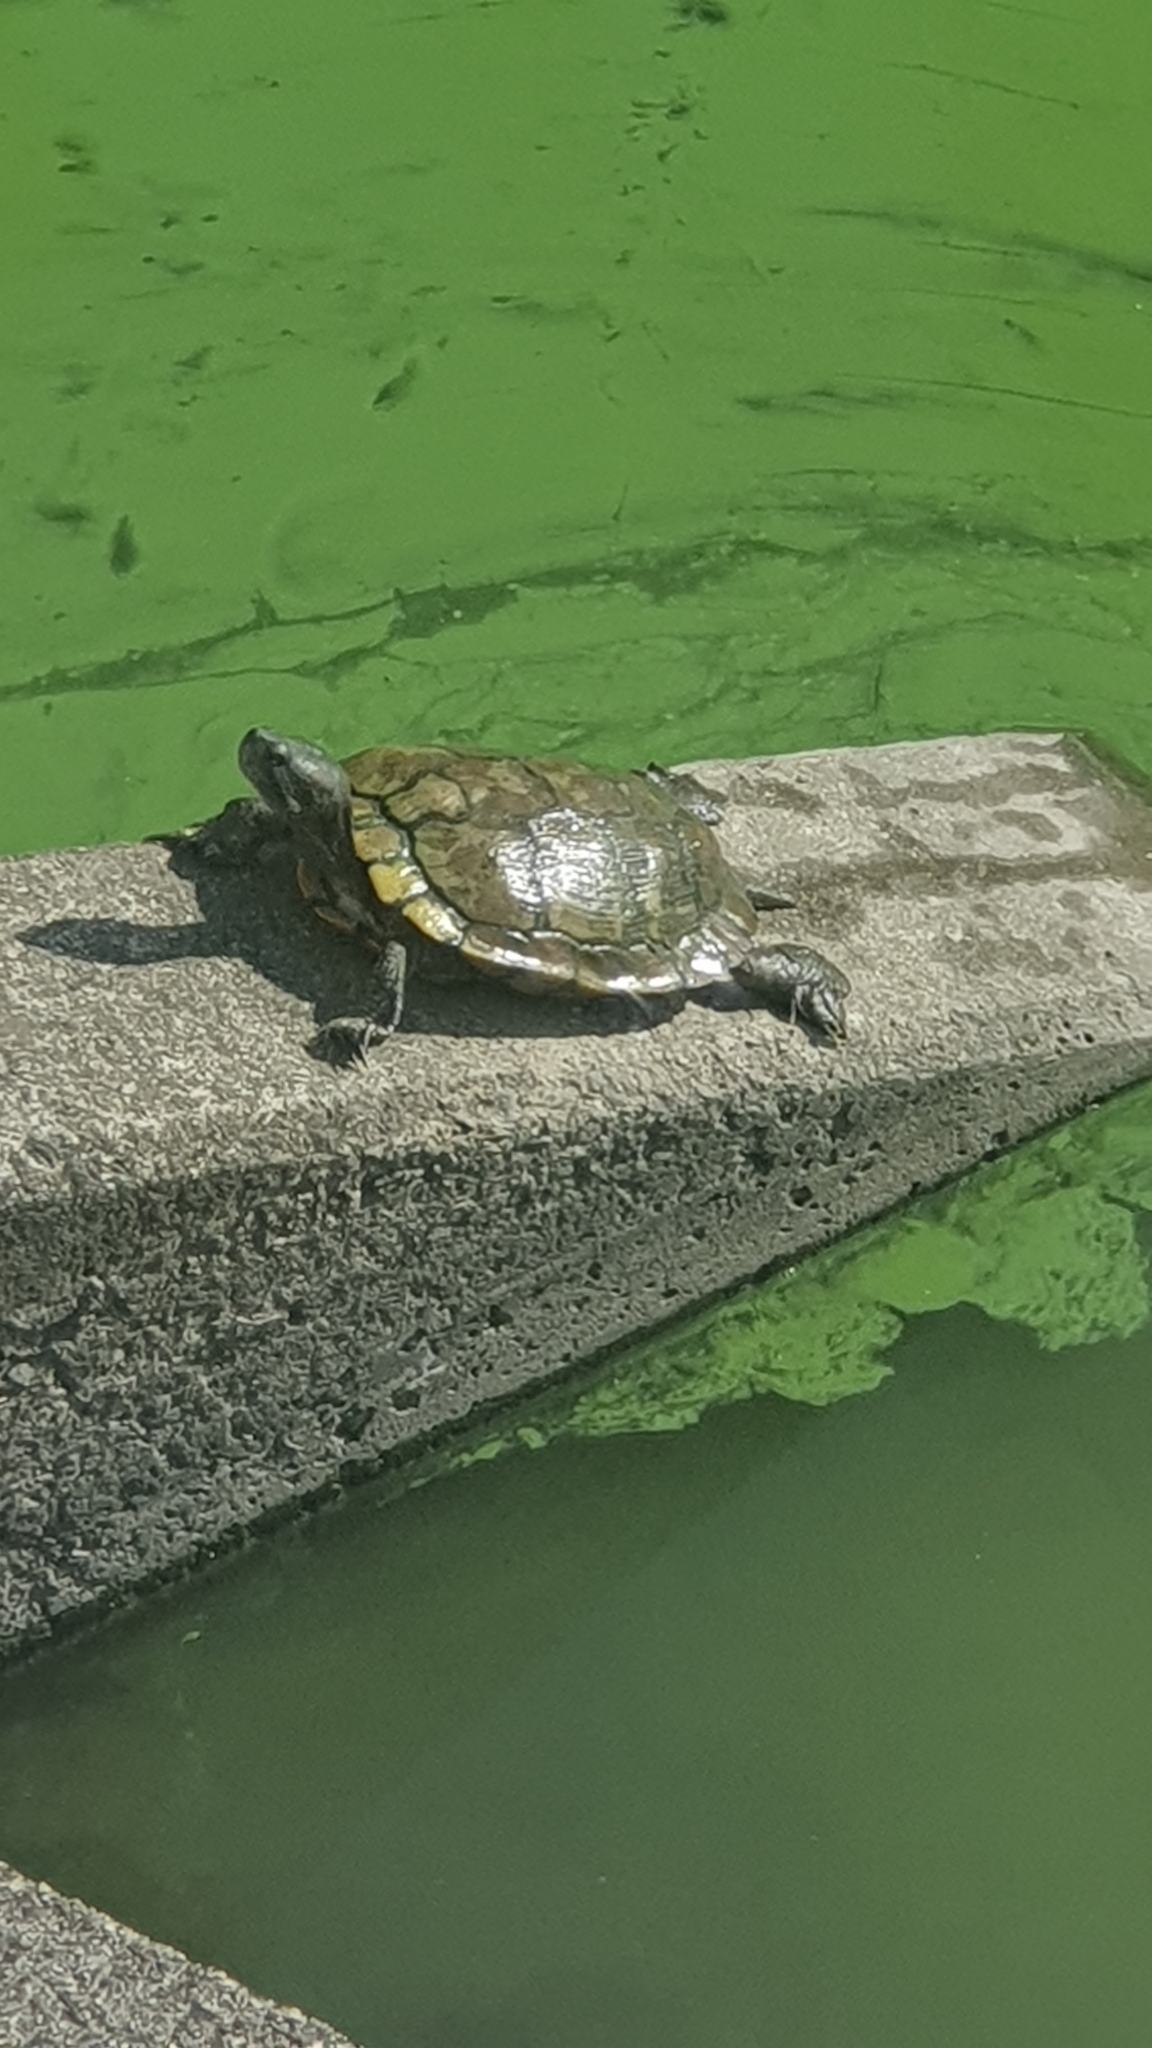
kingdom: Animalia
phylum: Chordata
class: Testudines
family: Emydidae
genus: Trachemys
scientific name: Trachemys scripta
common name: Slider
